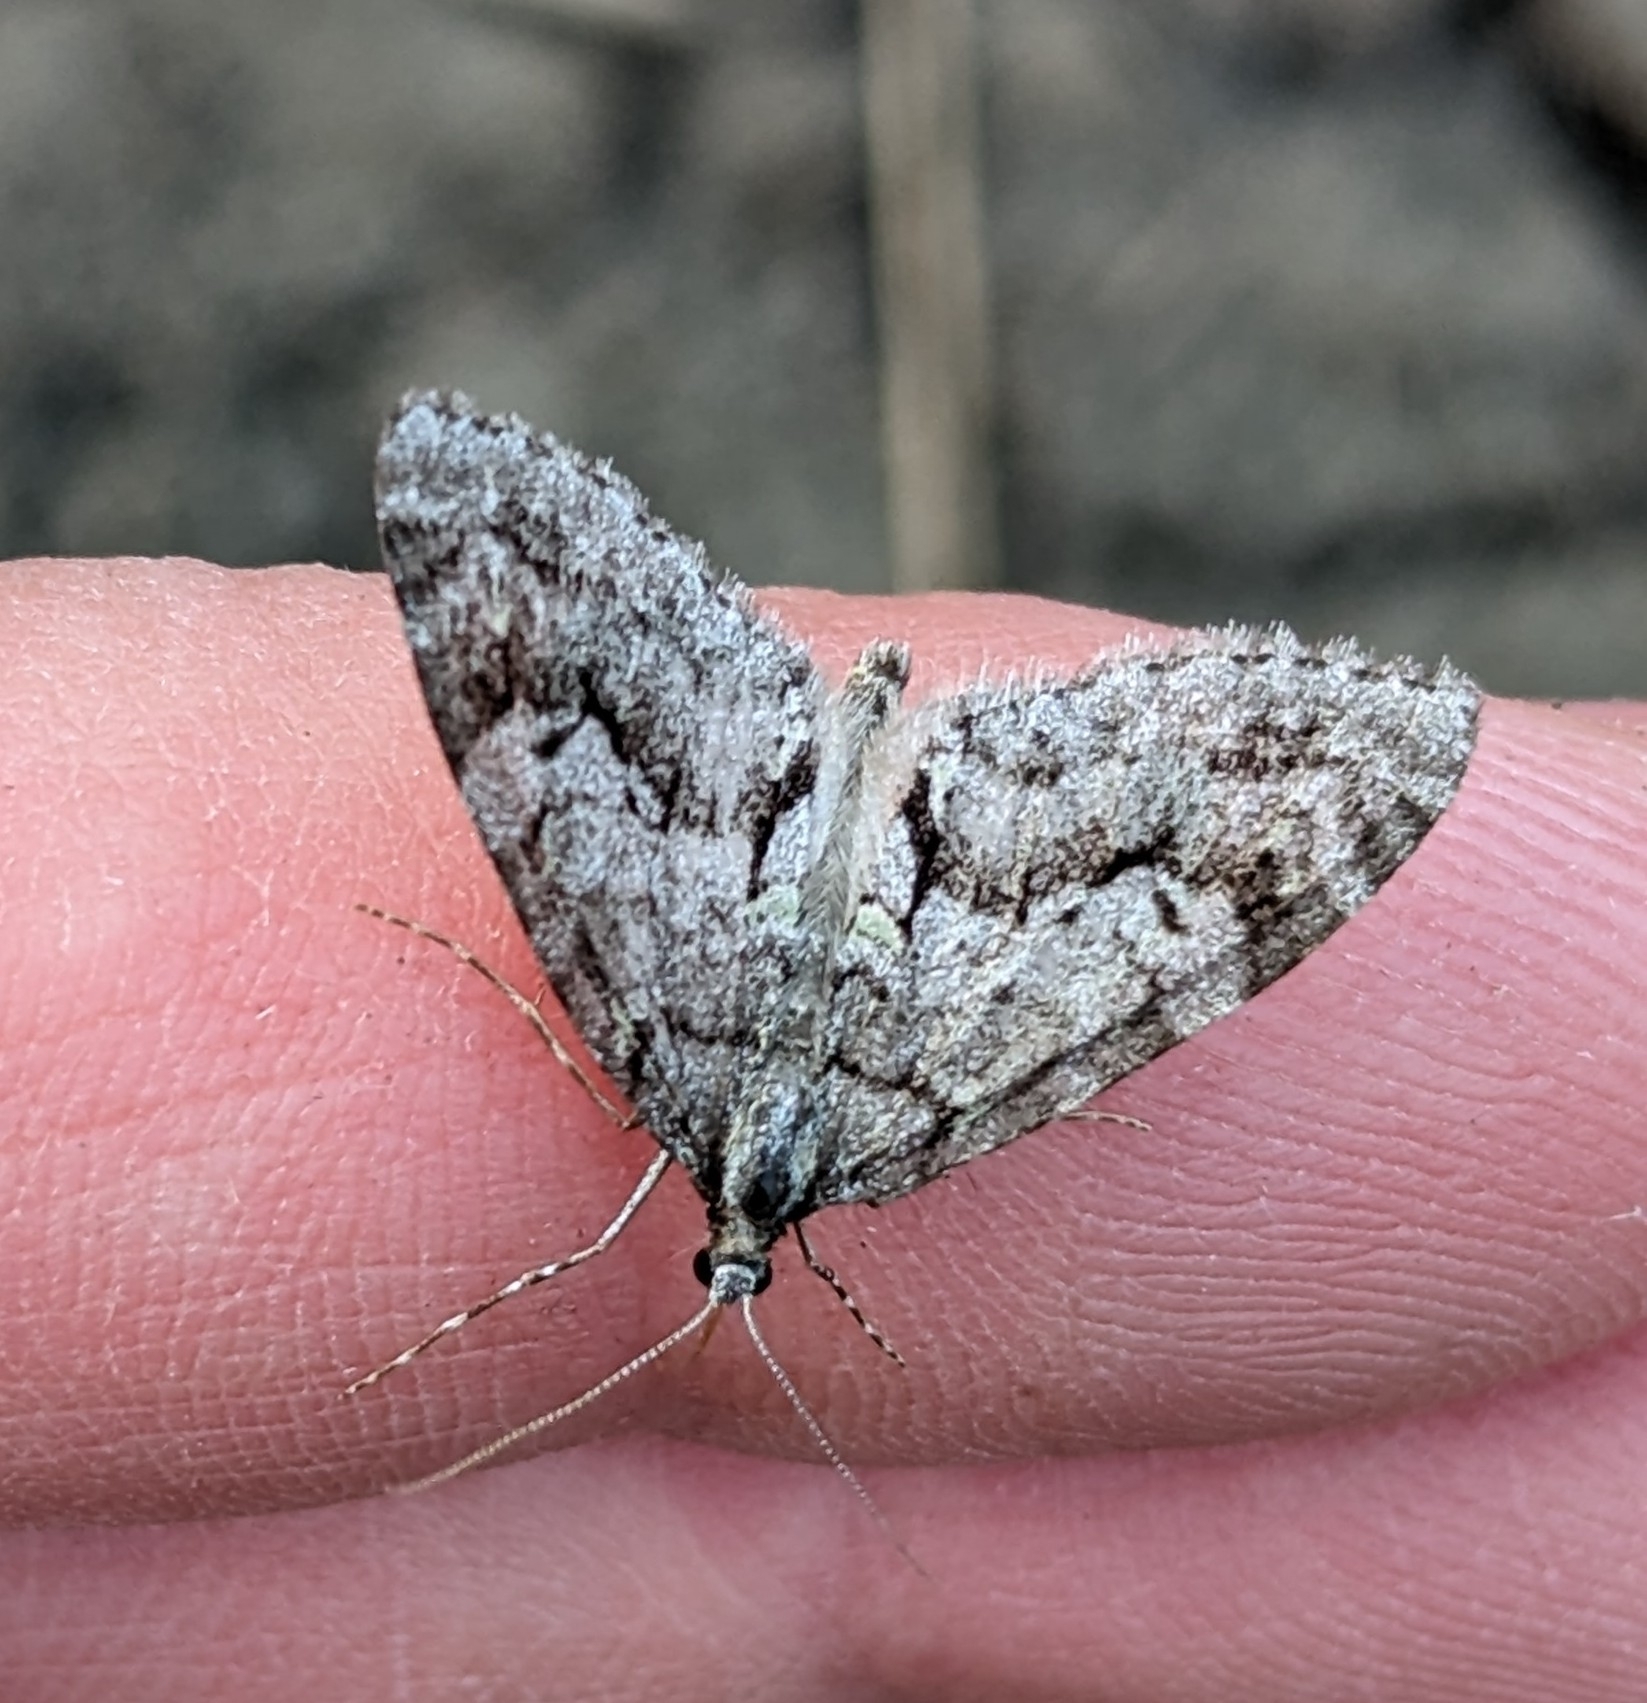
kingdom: Animalia
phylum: Arthropoda
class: Insecta
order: Lepidoptera
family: Geometridae
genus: Cladara
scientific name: Cladara limitaria
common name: Mottled gray carpet
